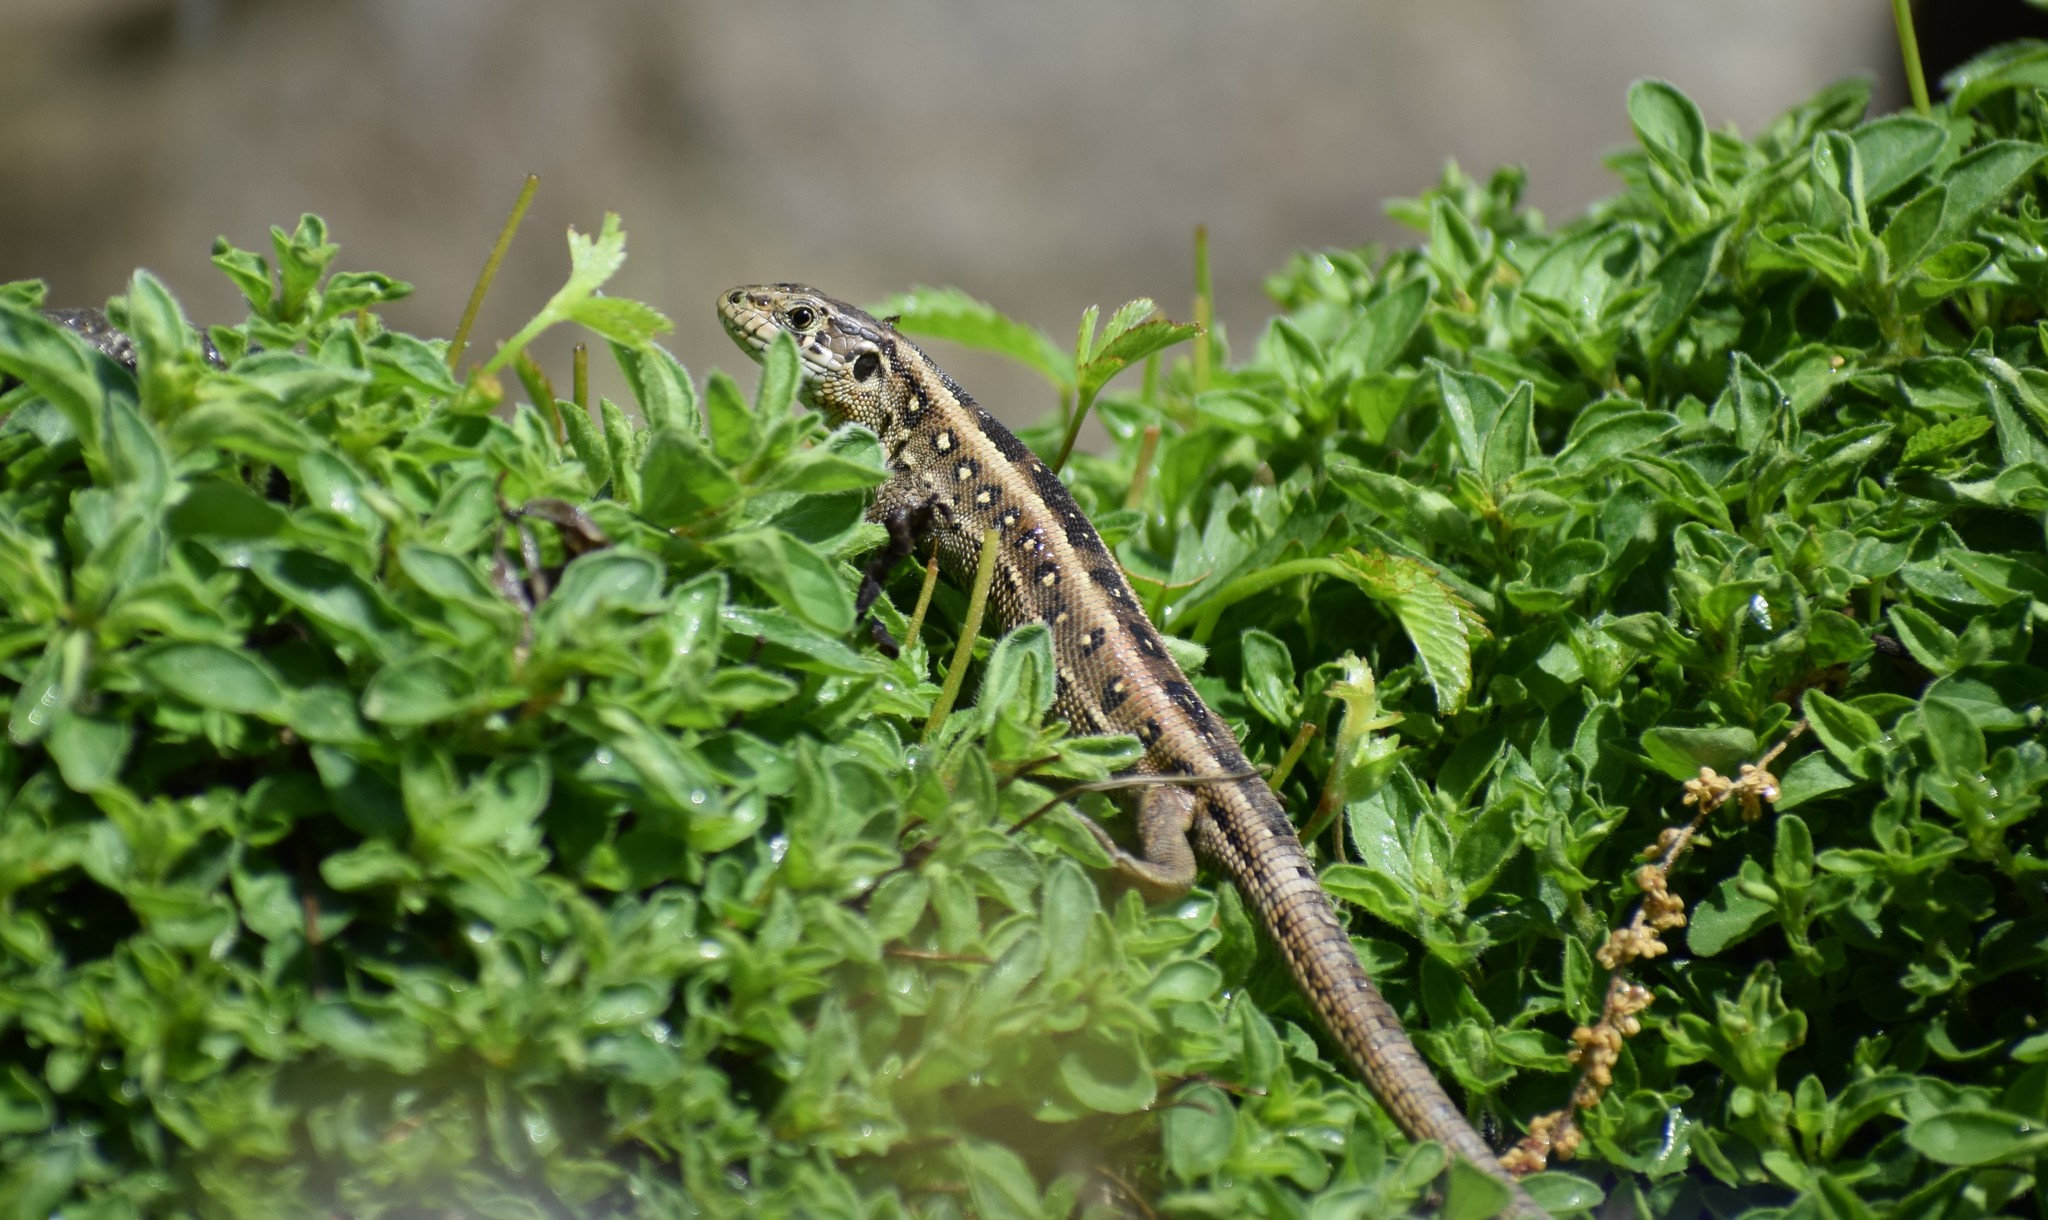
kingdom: Animalia
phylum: Chordata
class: Squamata
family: Lacertidae
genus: Lacerta
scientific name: Lacerta agilis
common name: Sand lizard
